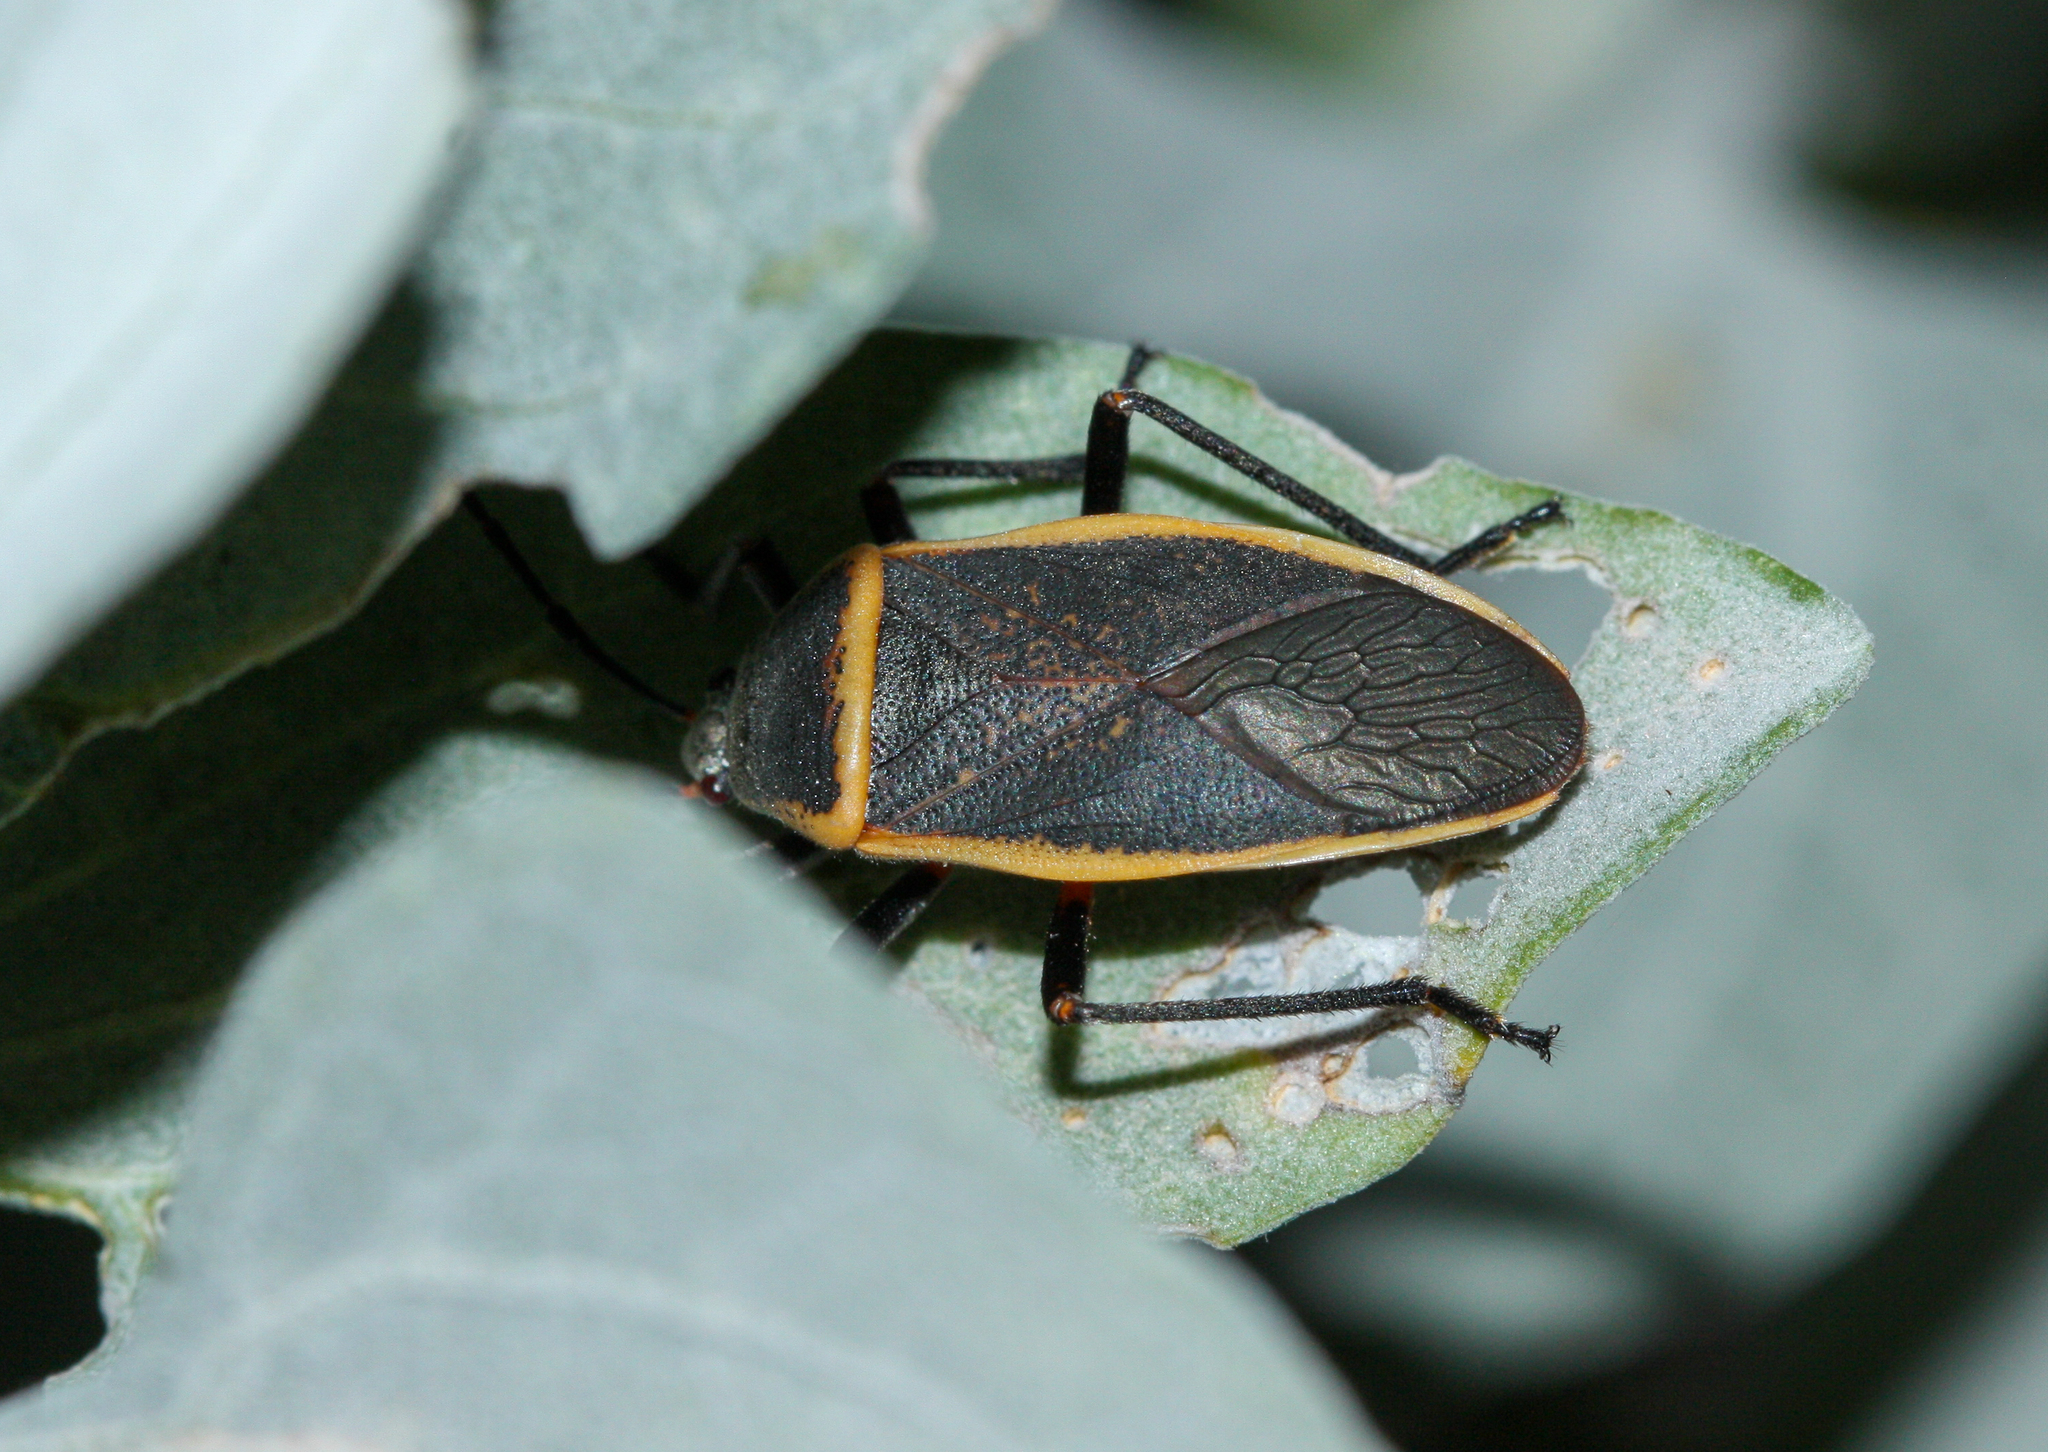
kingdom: Animalia
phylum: Arthropoda
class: Insecta
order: Hemiptera
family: Largidae
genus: Largus
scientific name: Largus
